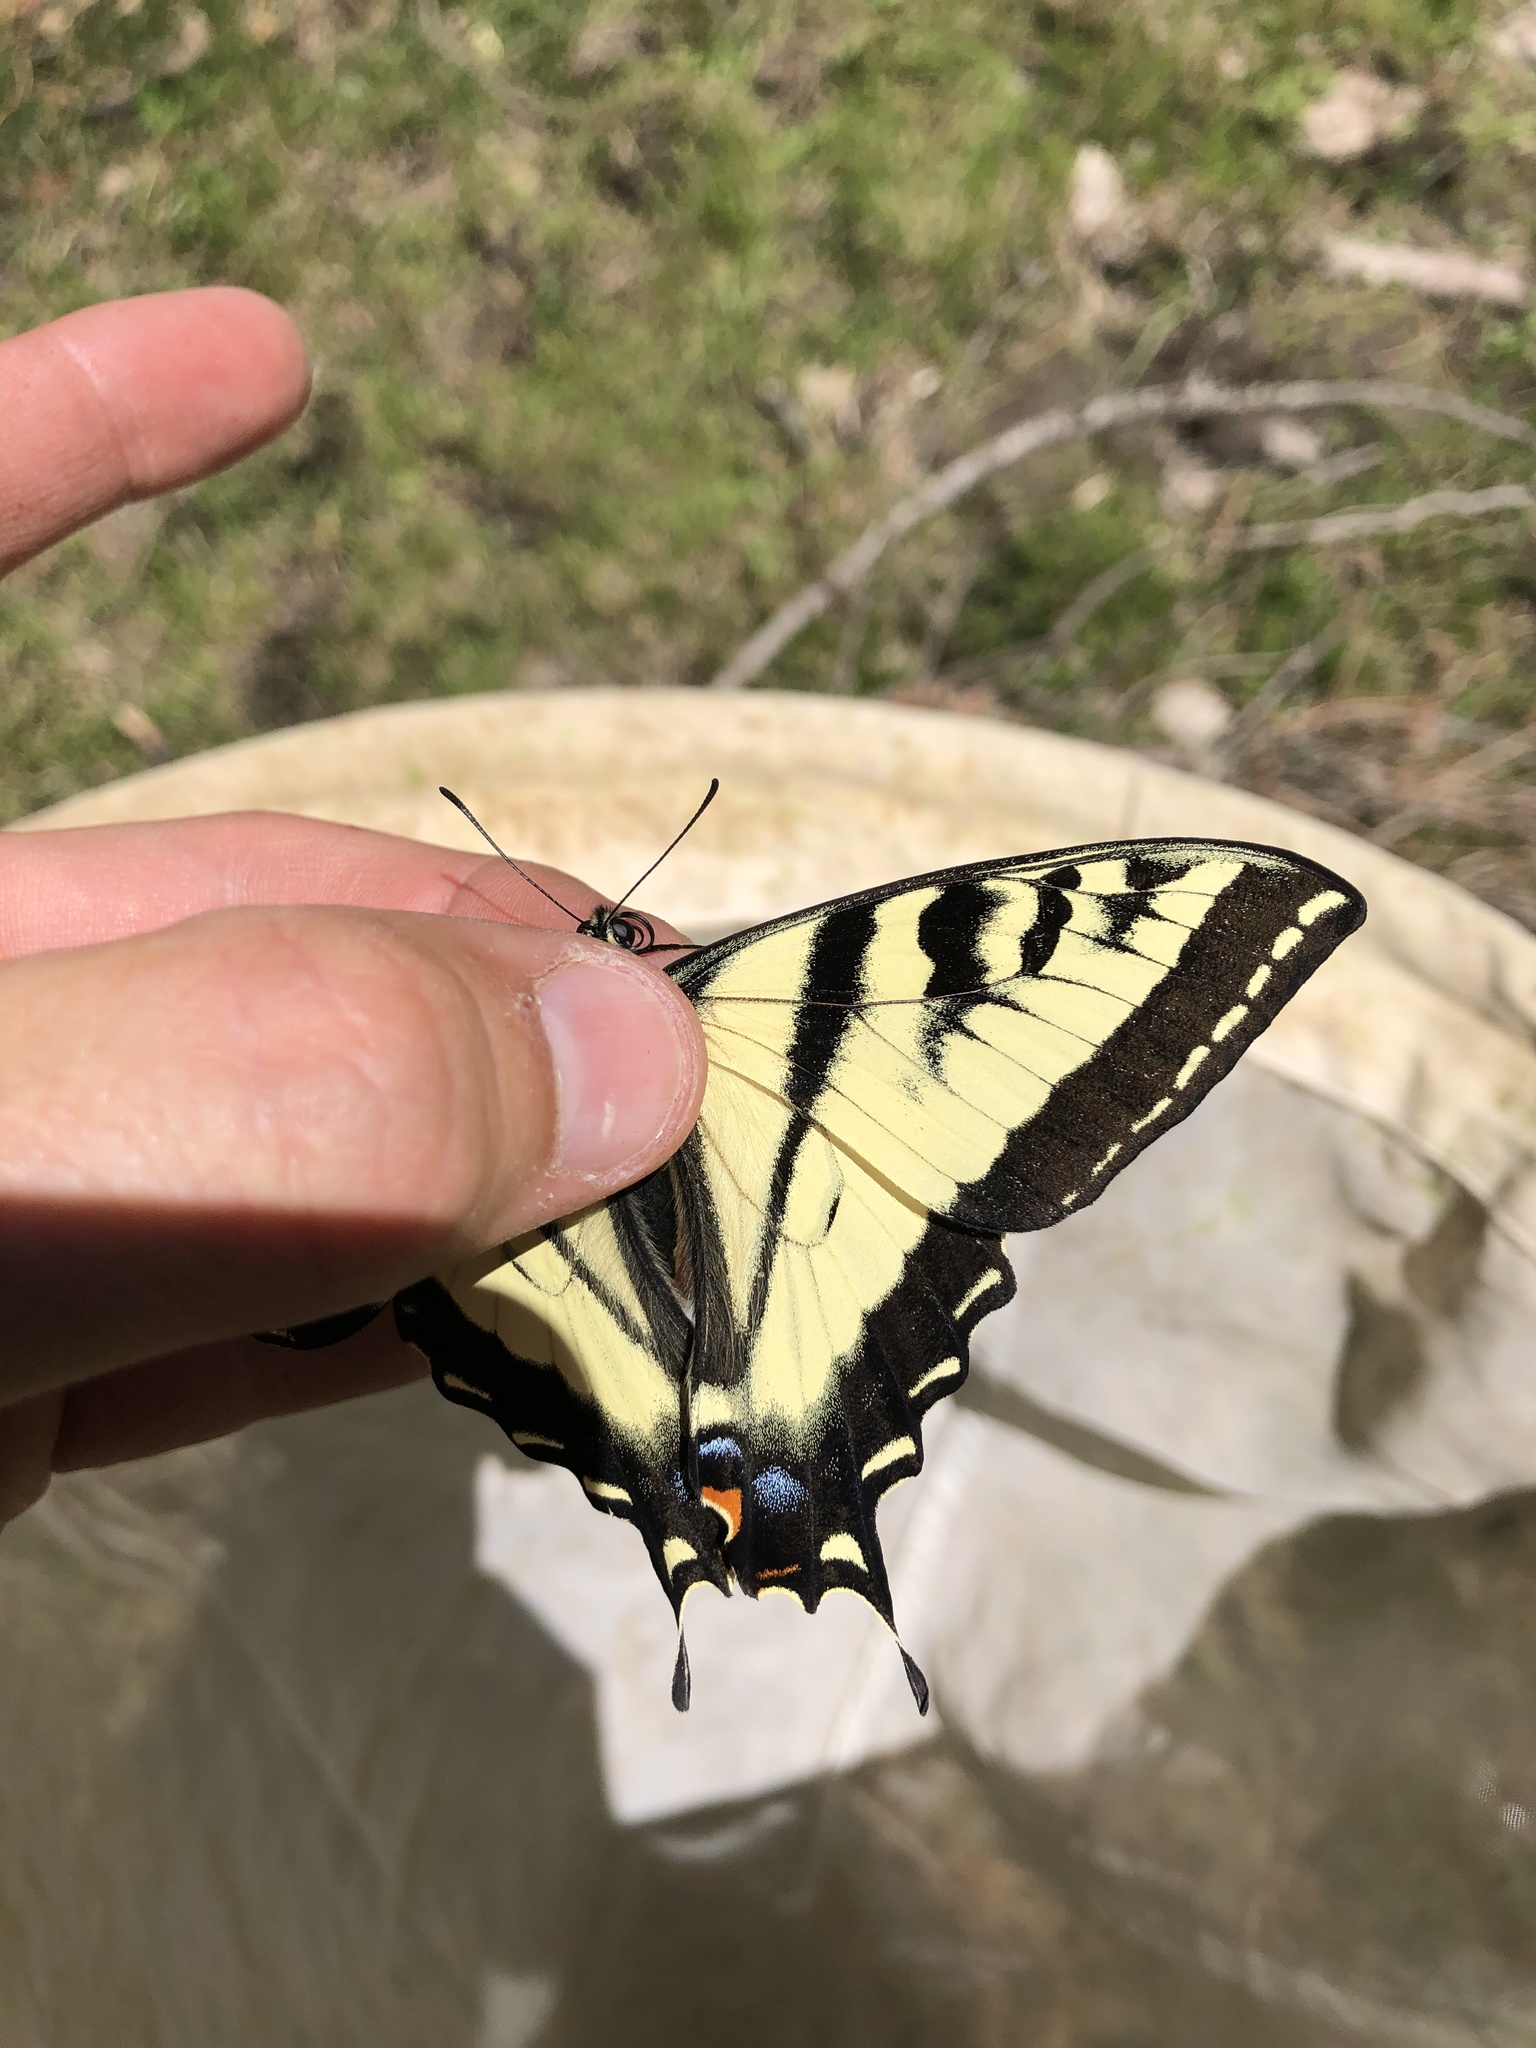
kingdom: Animalia
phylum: Arthropoda
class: Insecta
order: Lepidoptera
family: Papilionidae
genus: Papilio
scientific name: Papilio rutulus
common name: Western tiger swallowtail
